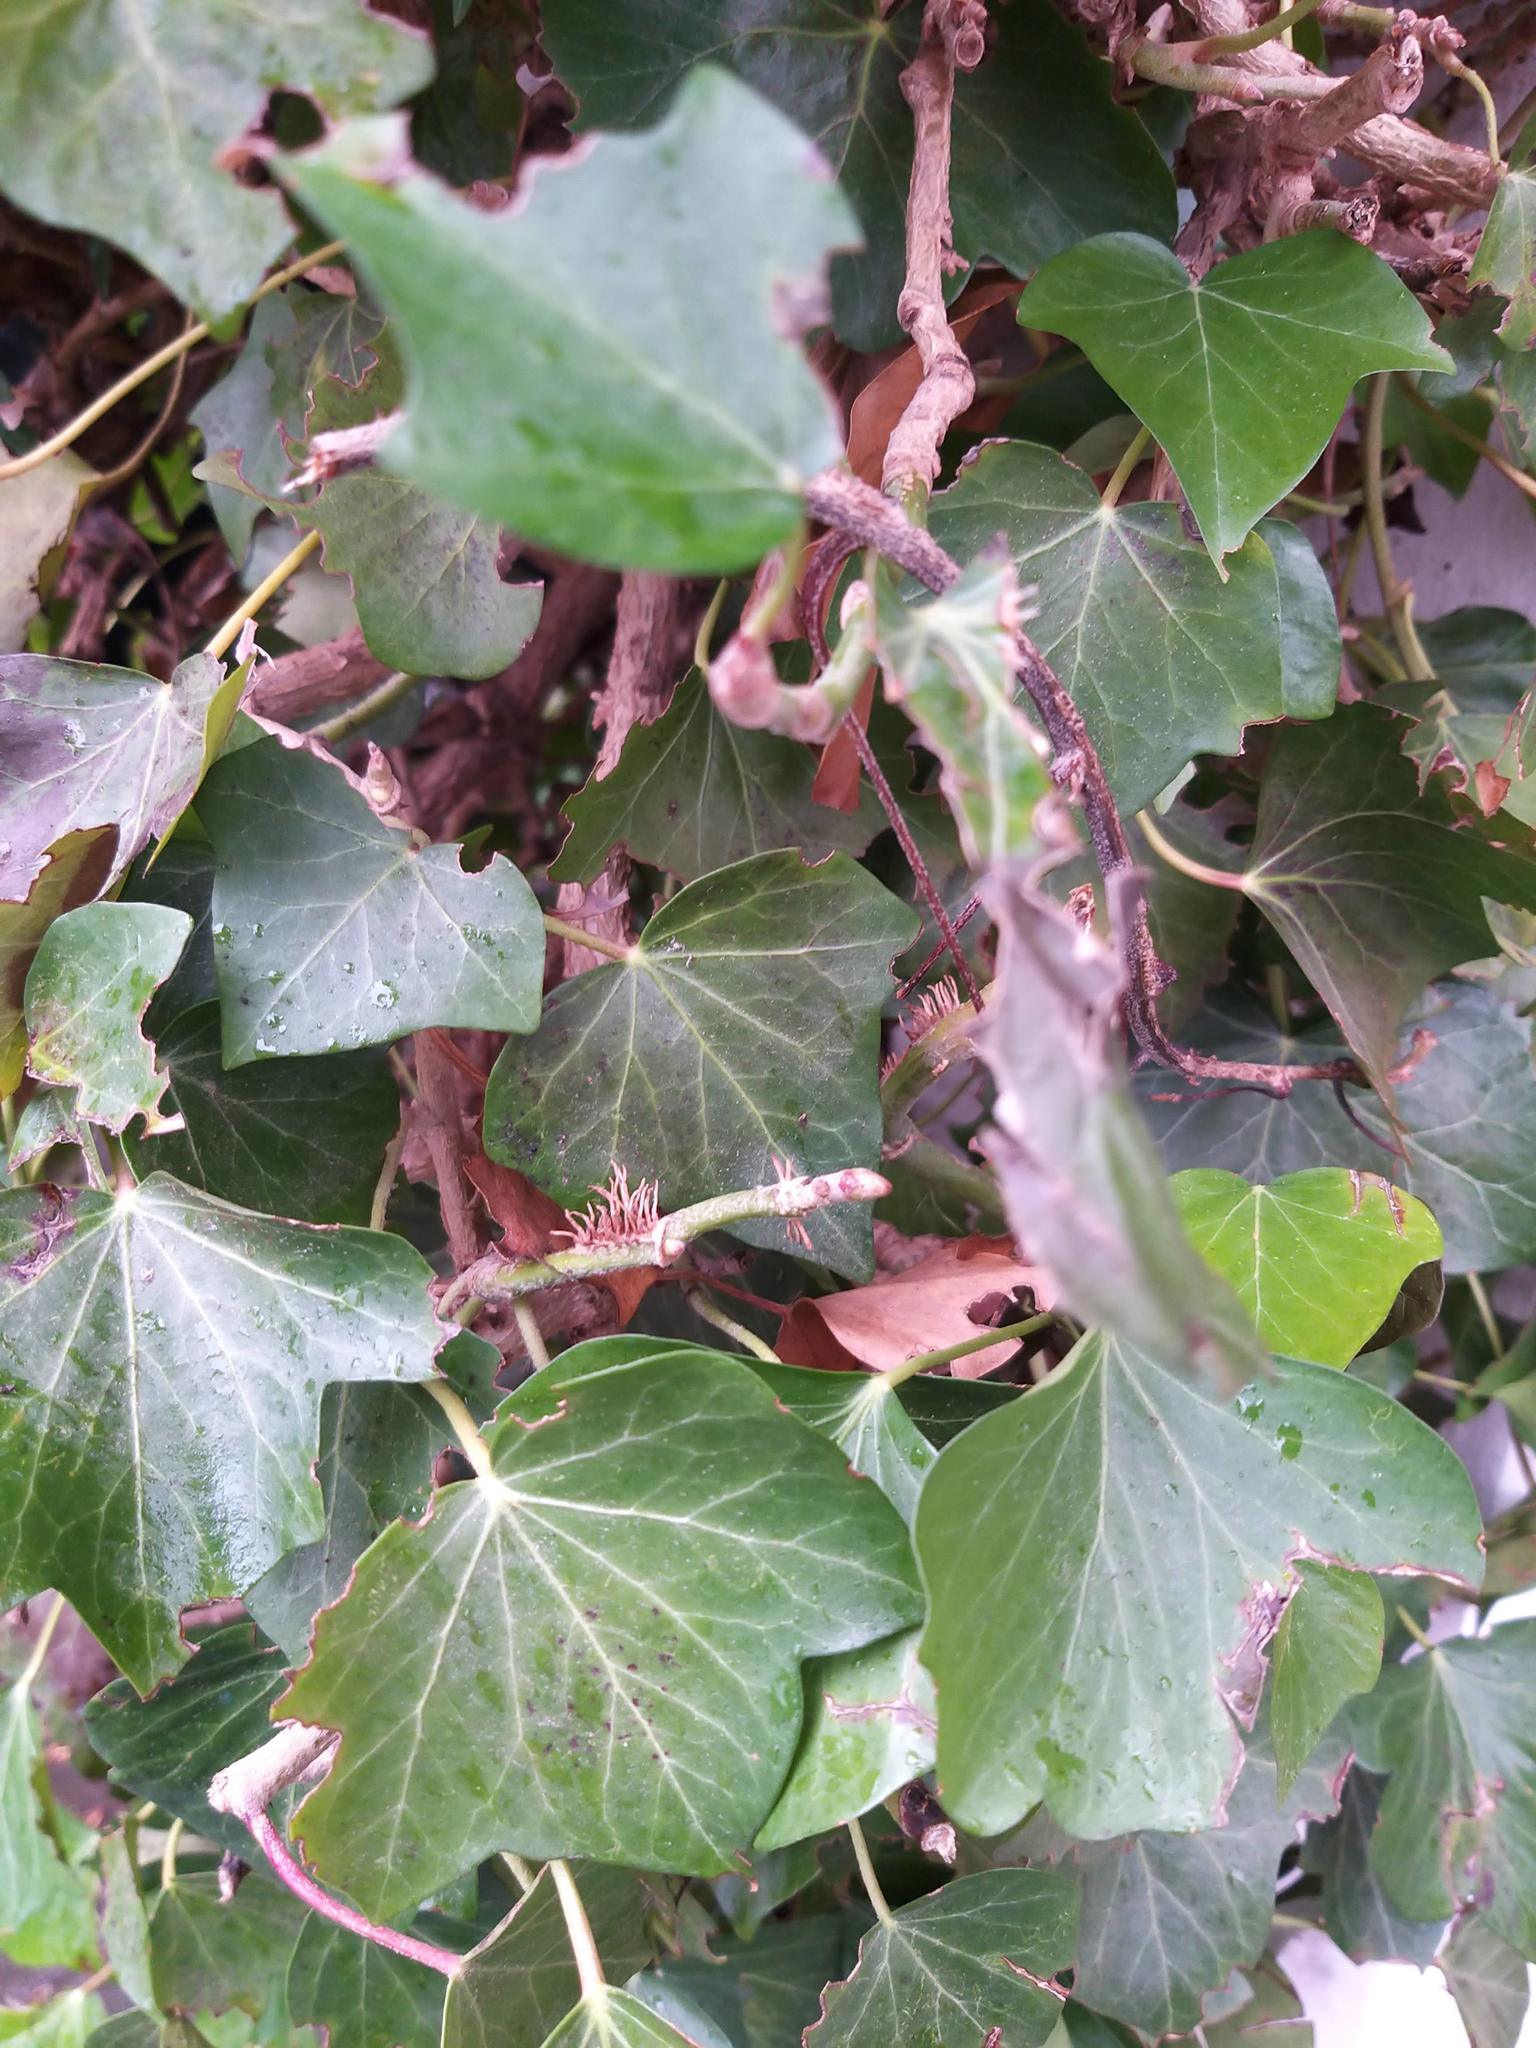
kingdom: Plantae
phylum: Tracheophyta
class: Magnoliopsida
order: Apiales
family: Araliaceae
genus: Hedera
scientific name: Hedera helix
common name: Ivy
